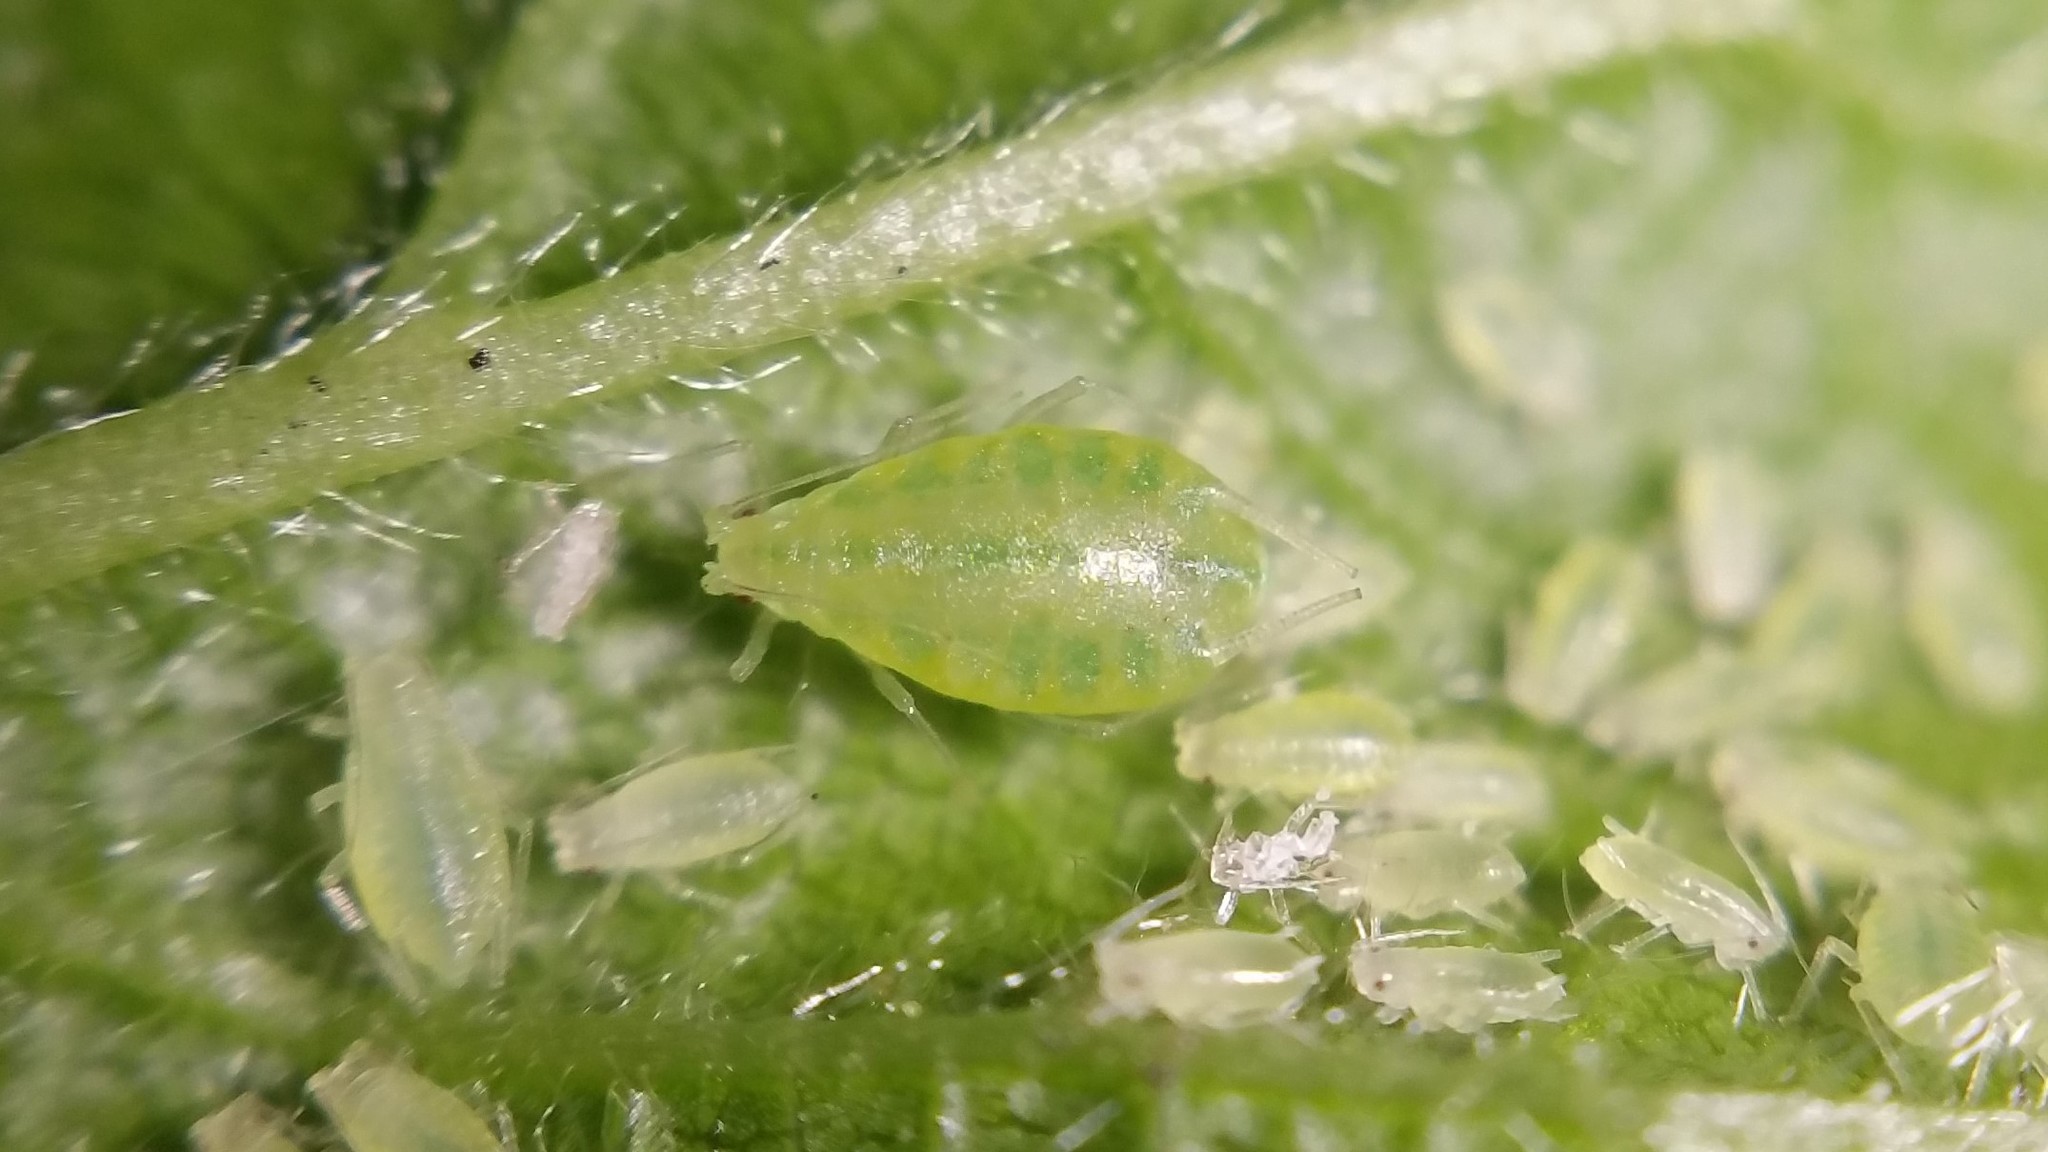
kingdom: Animalia
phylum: Arthropoda
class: Insecta
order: Hemiptera
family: Aphididae
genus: Phorodon
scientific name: Phorodon humuli
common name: Hop aphid
